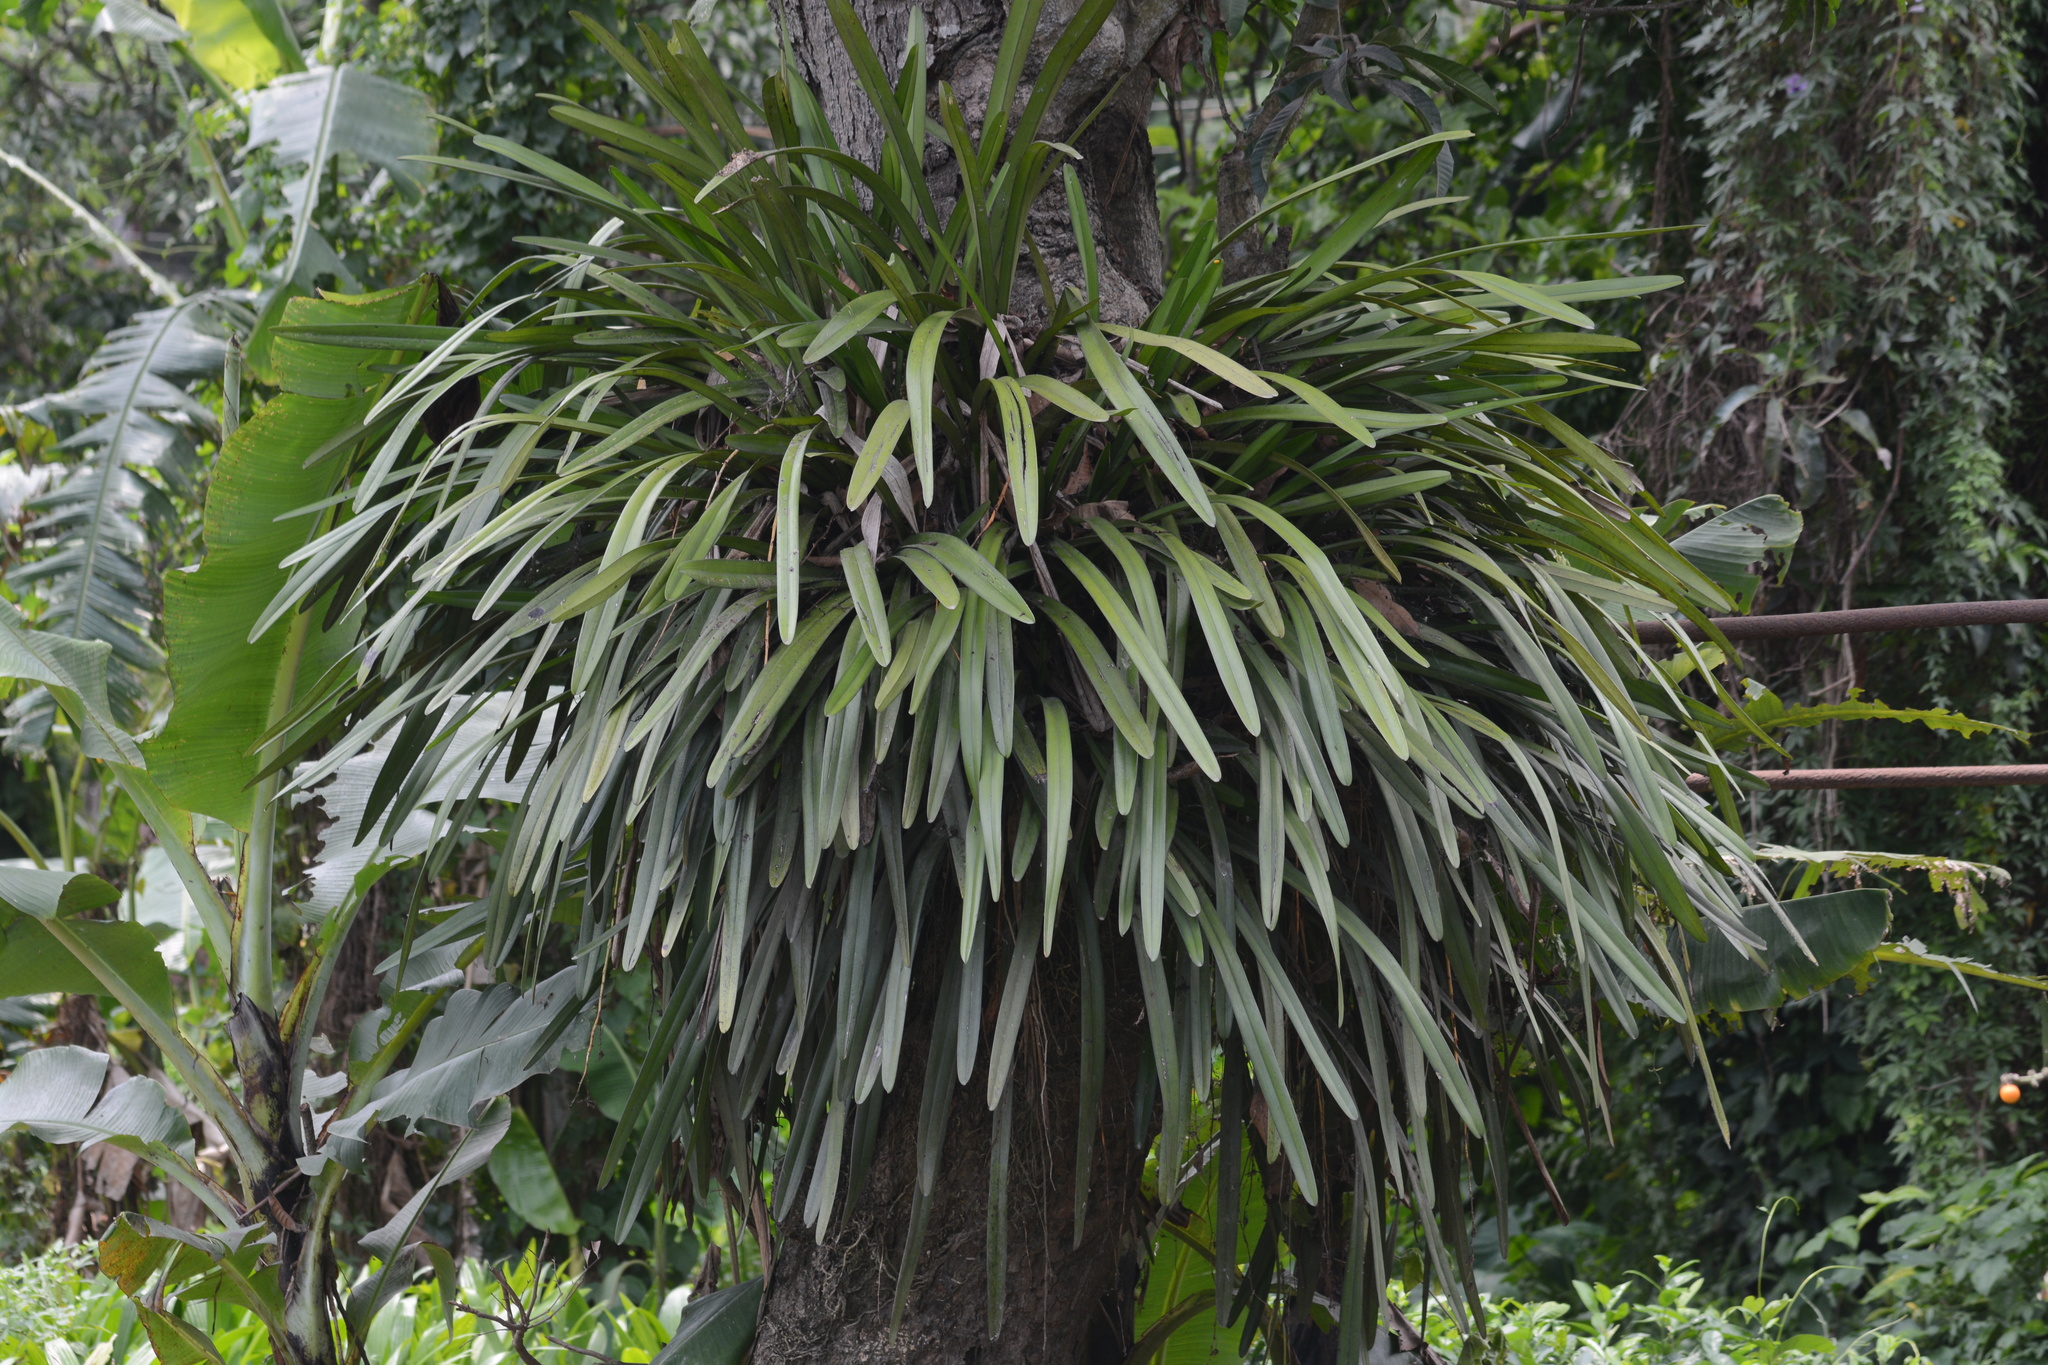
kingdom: Plantae
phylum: Tracheophyta
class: Liliopsida
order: Asparagales
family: Orchidaceae
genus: Cymbidium
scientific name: Cymbidium aloifolium
